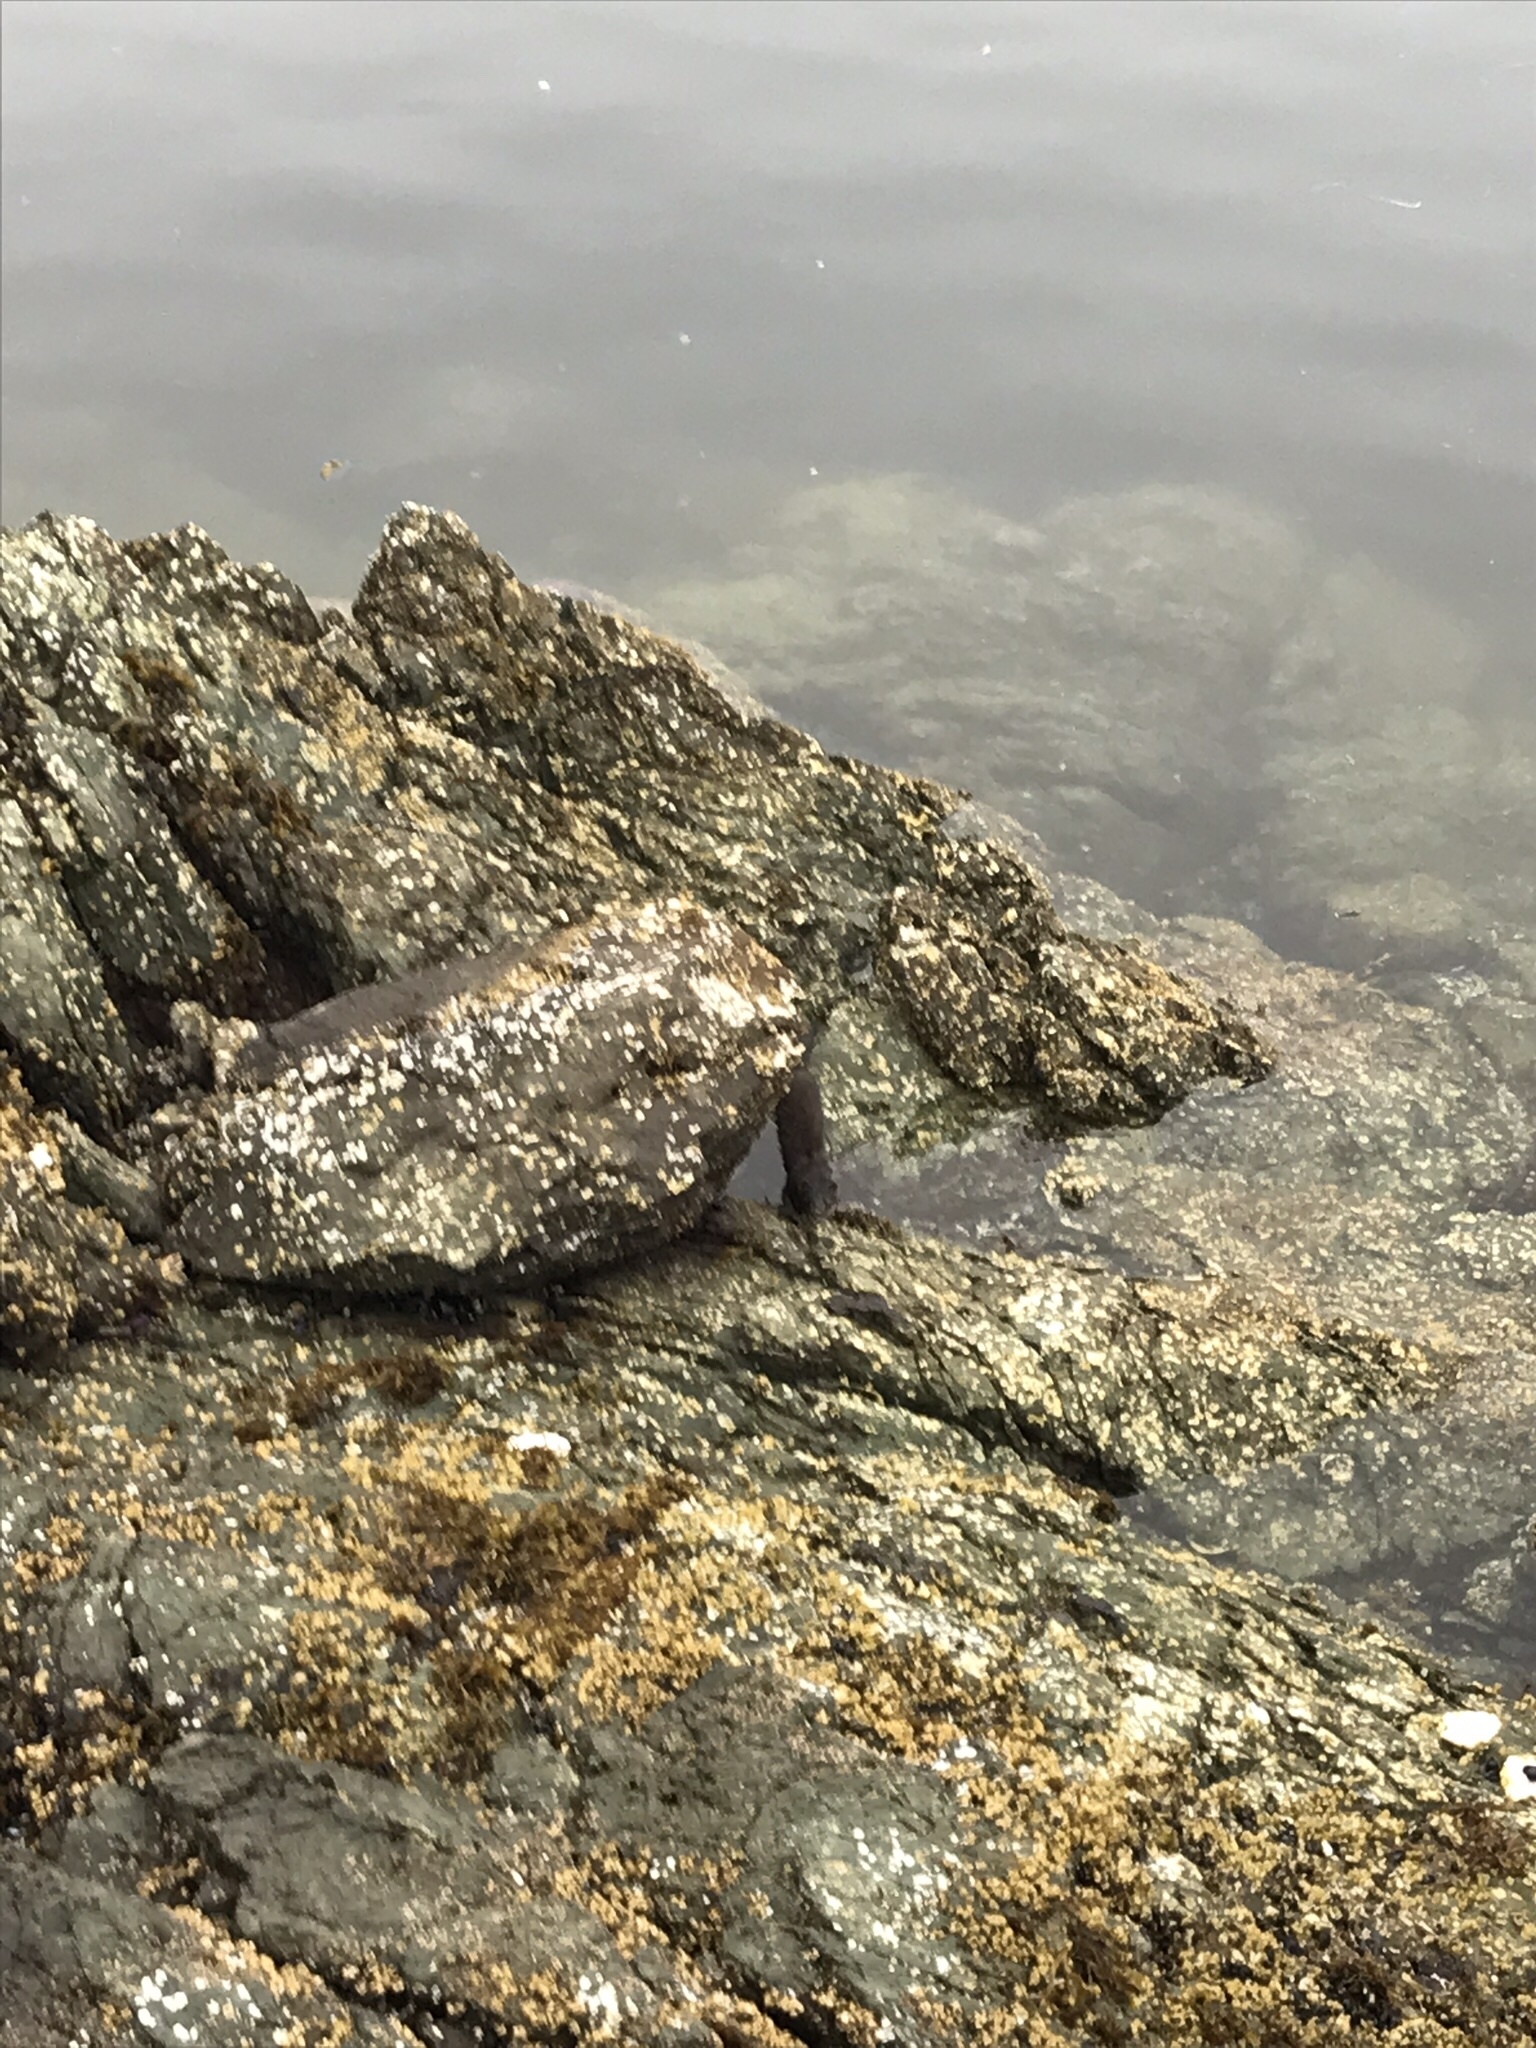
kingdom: Animalia
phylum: Chordata
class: Mammalia
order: Carnivora
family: Mustelidae
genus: Mustela
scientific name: Mustela
